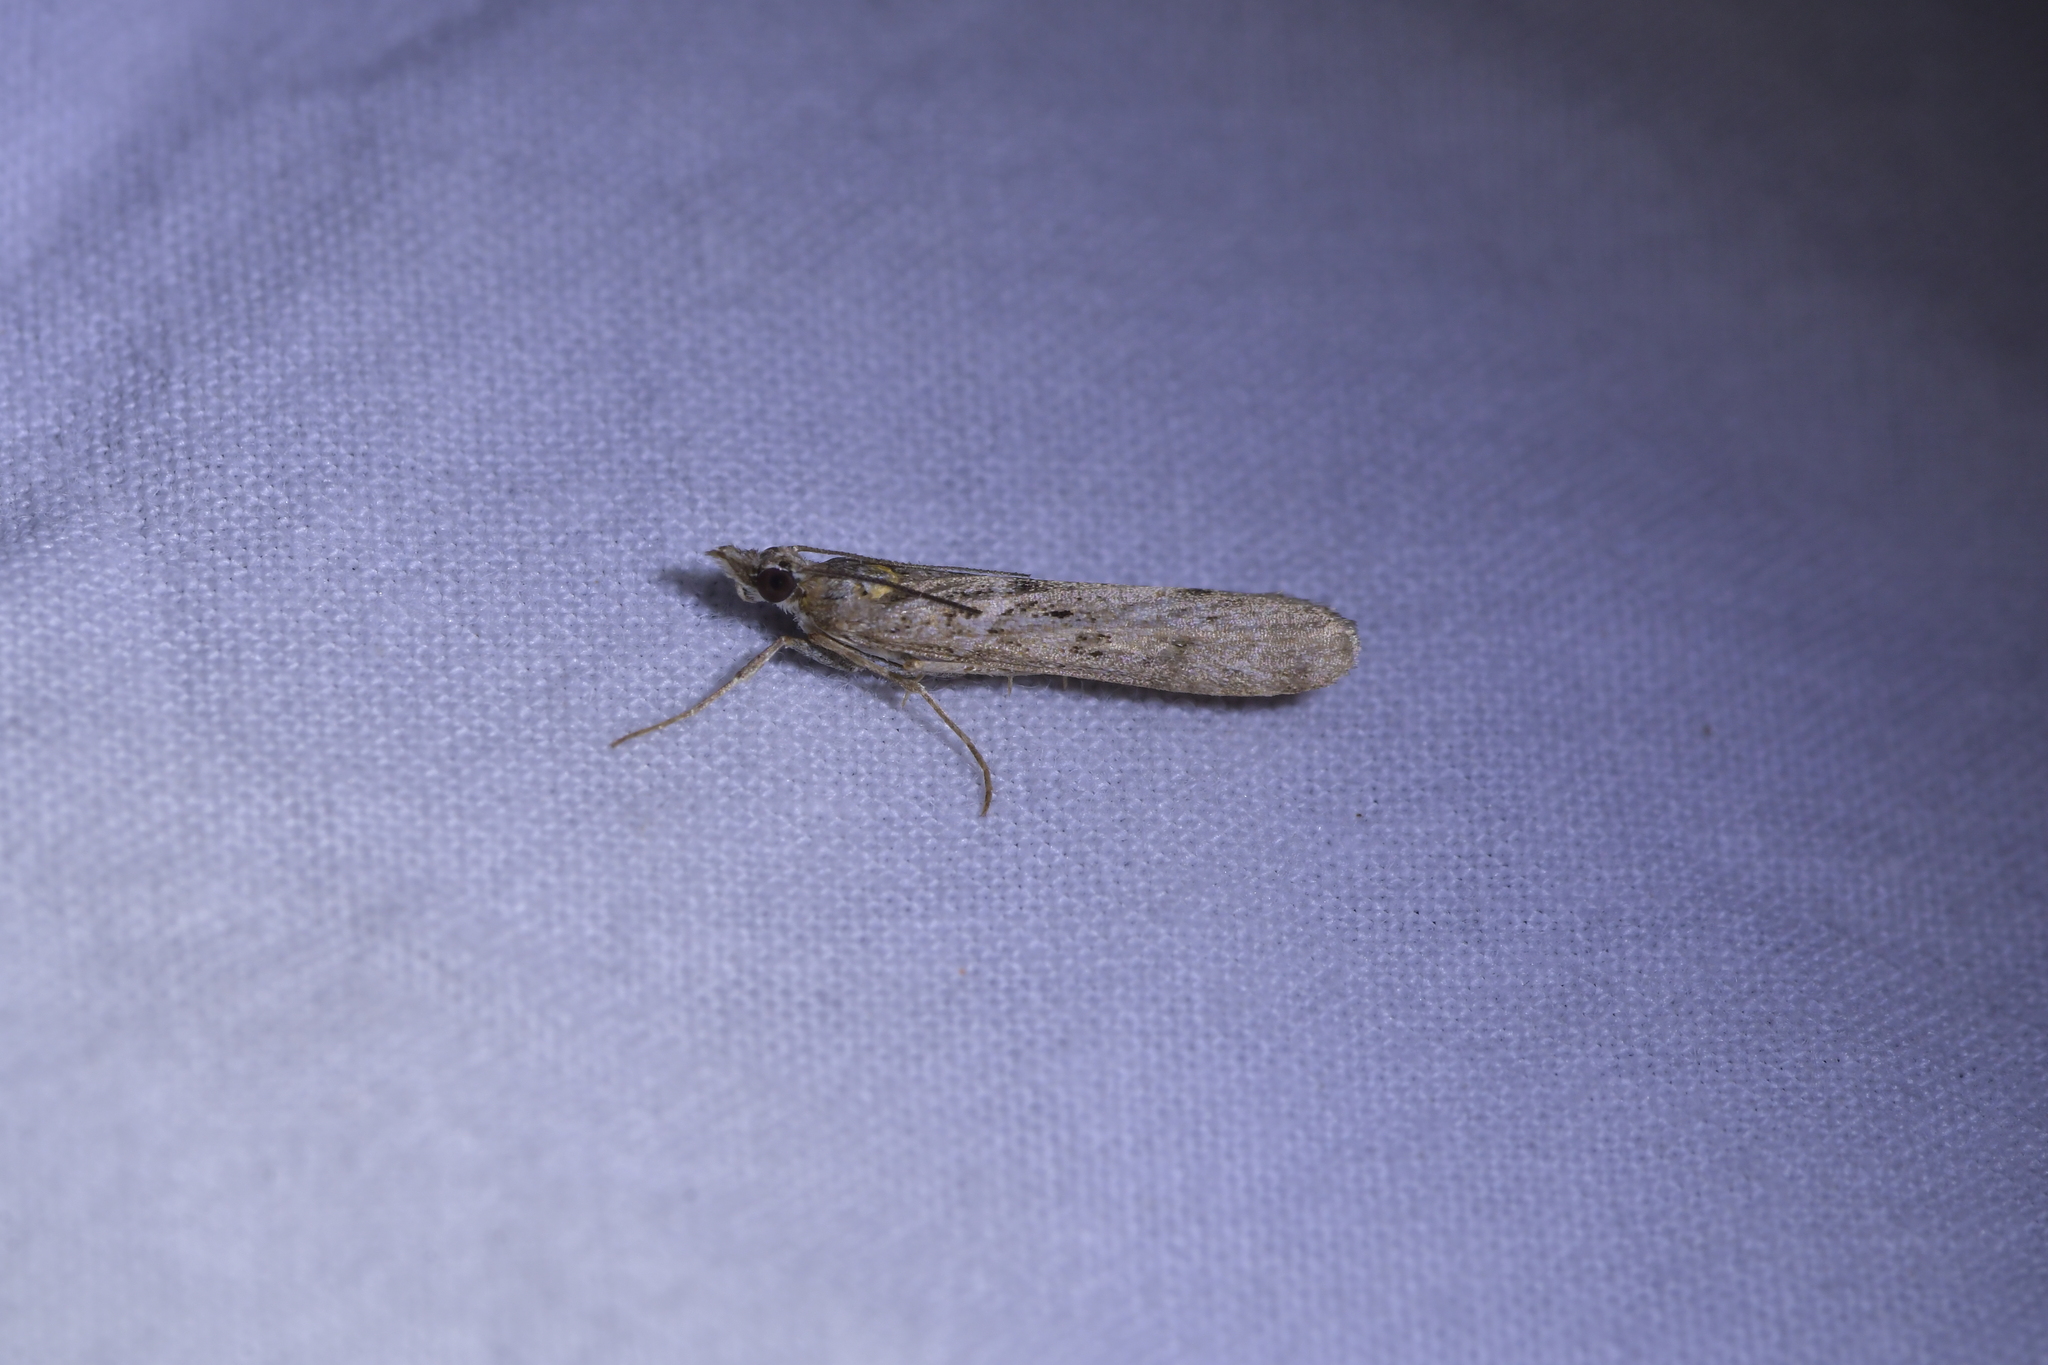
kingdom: Animalia
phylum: Arthropoda
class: Insecta
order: Lepidoptera
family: Crambidae
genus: Eudonia
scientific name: Eudonia leptalea
